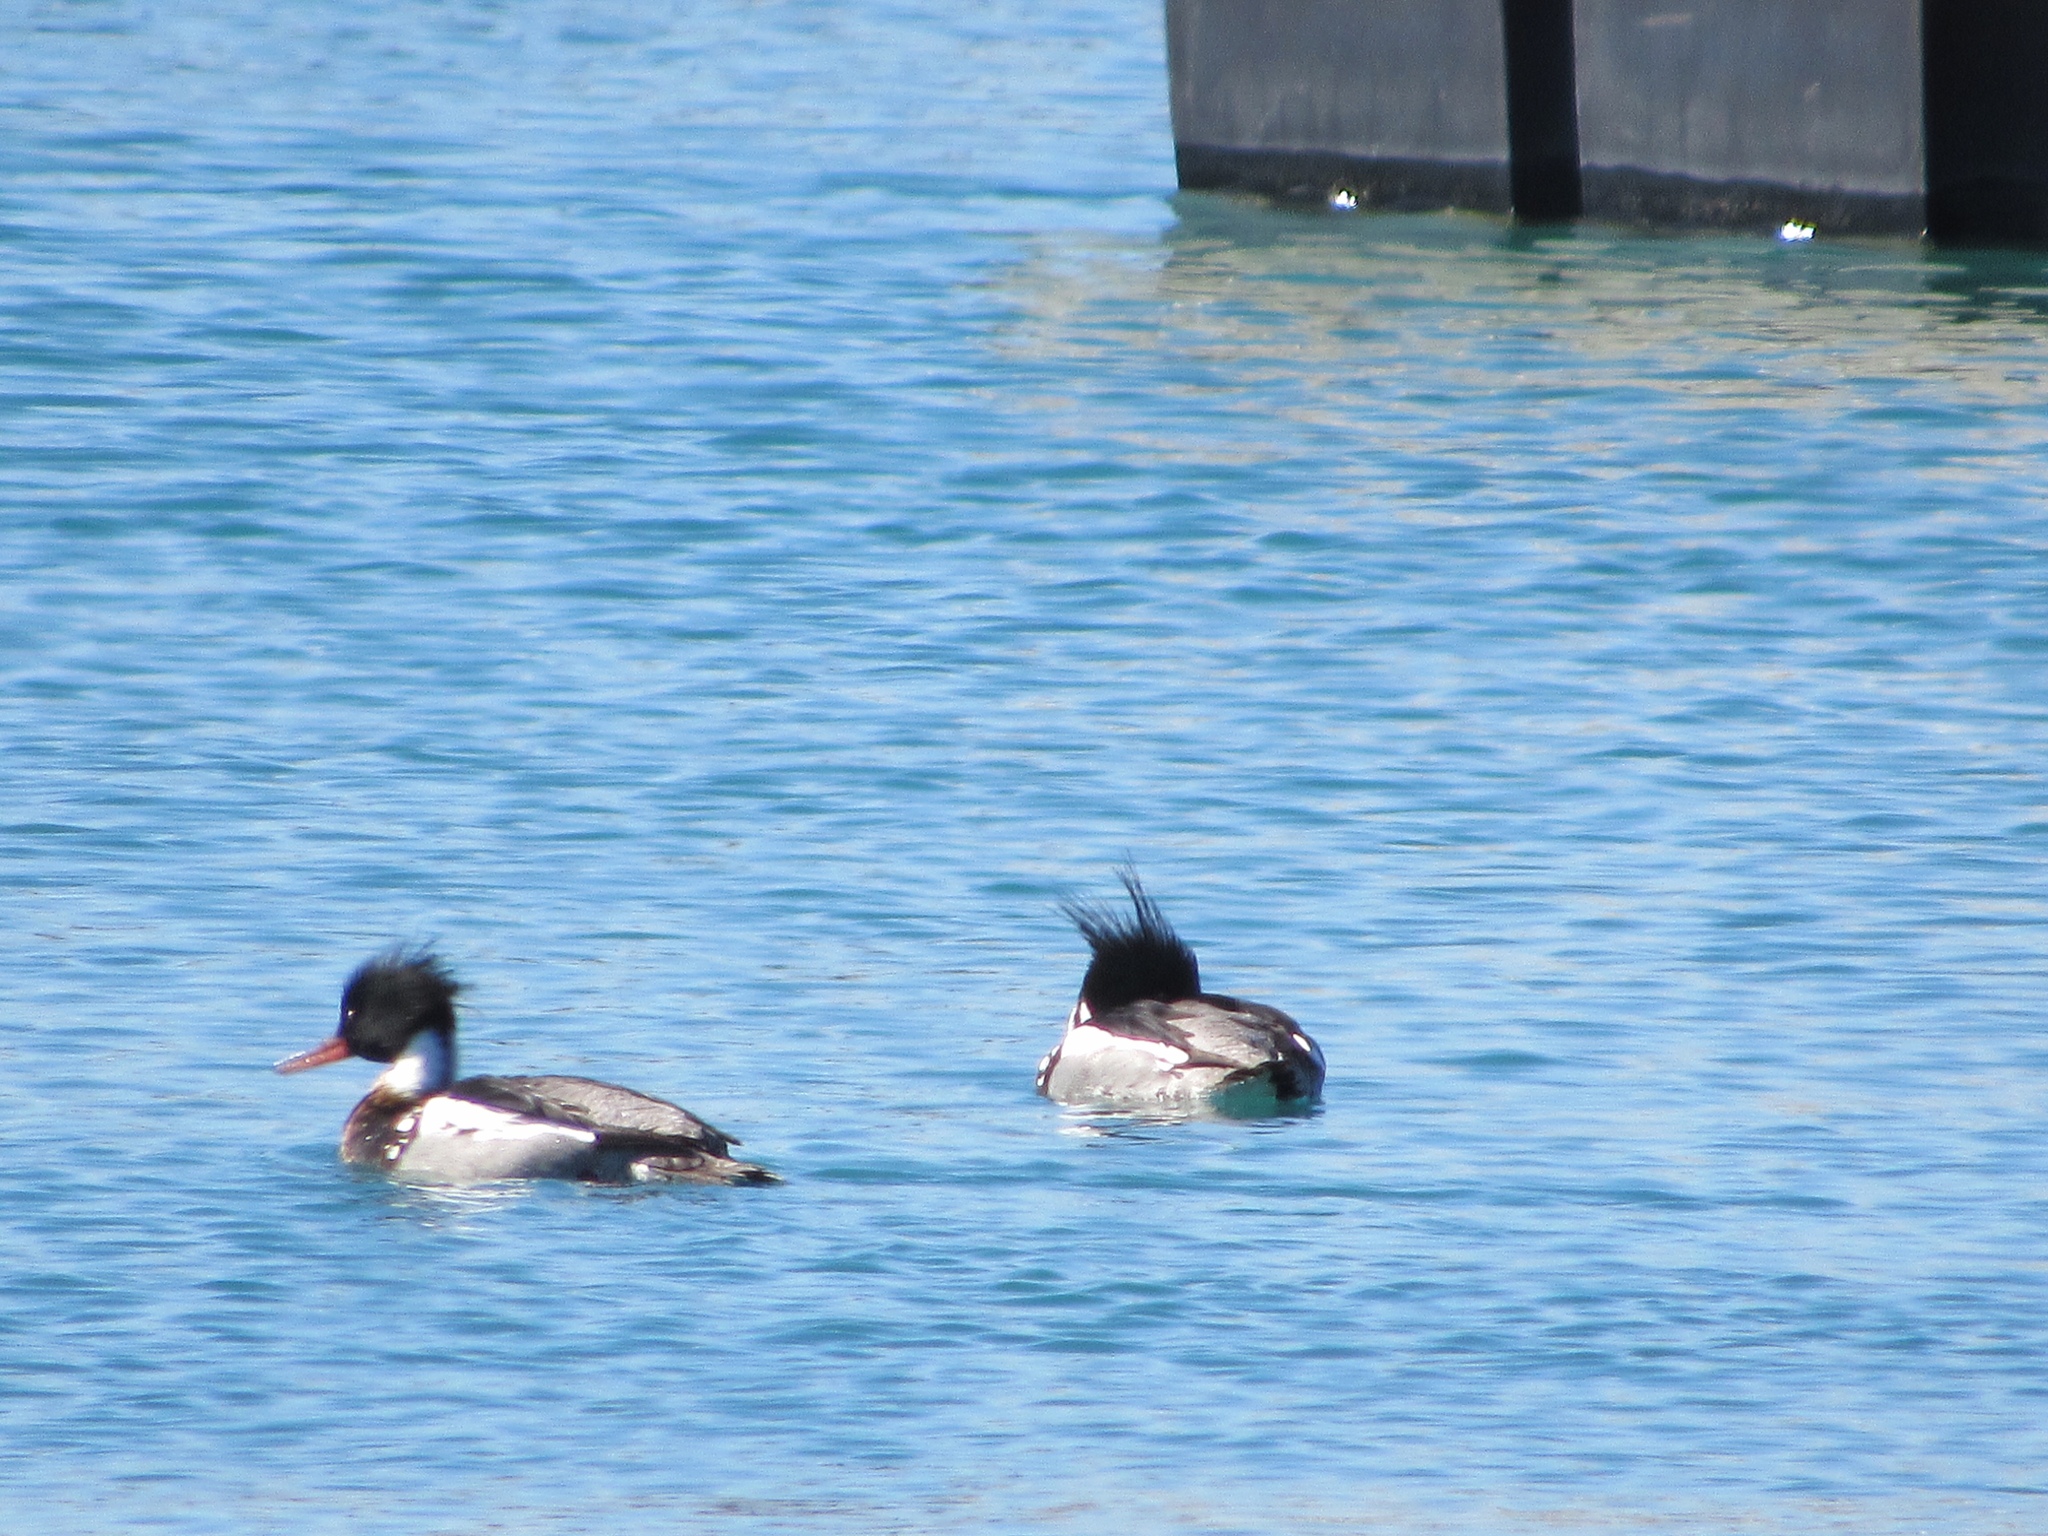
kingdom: Animalia
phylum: Chordata
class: Aves
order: Anseriformes
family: Anatidae
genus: Mergus
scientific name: Mergus serrator
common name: Red-breasted merganser
